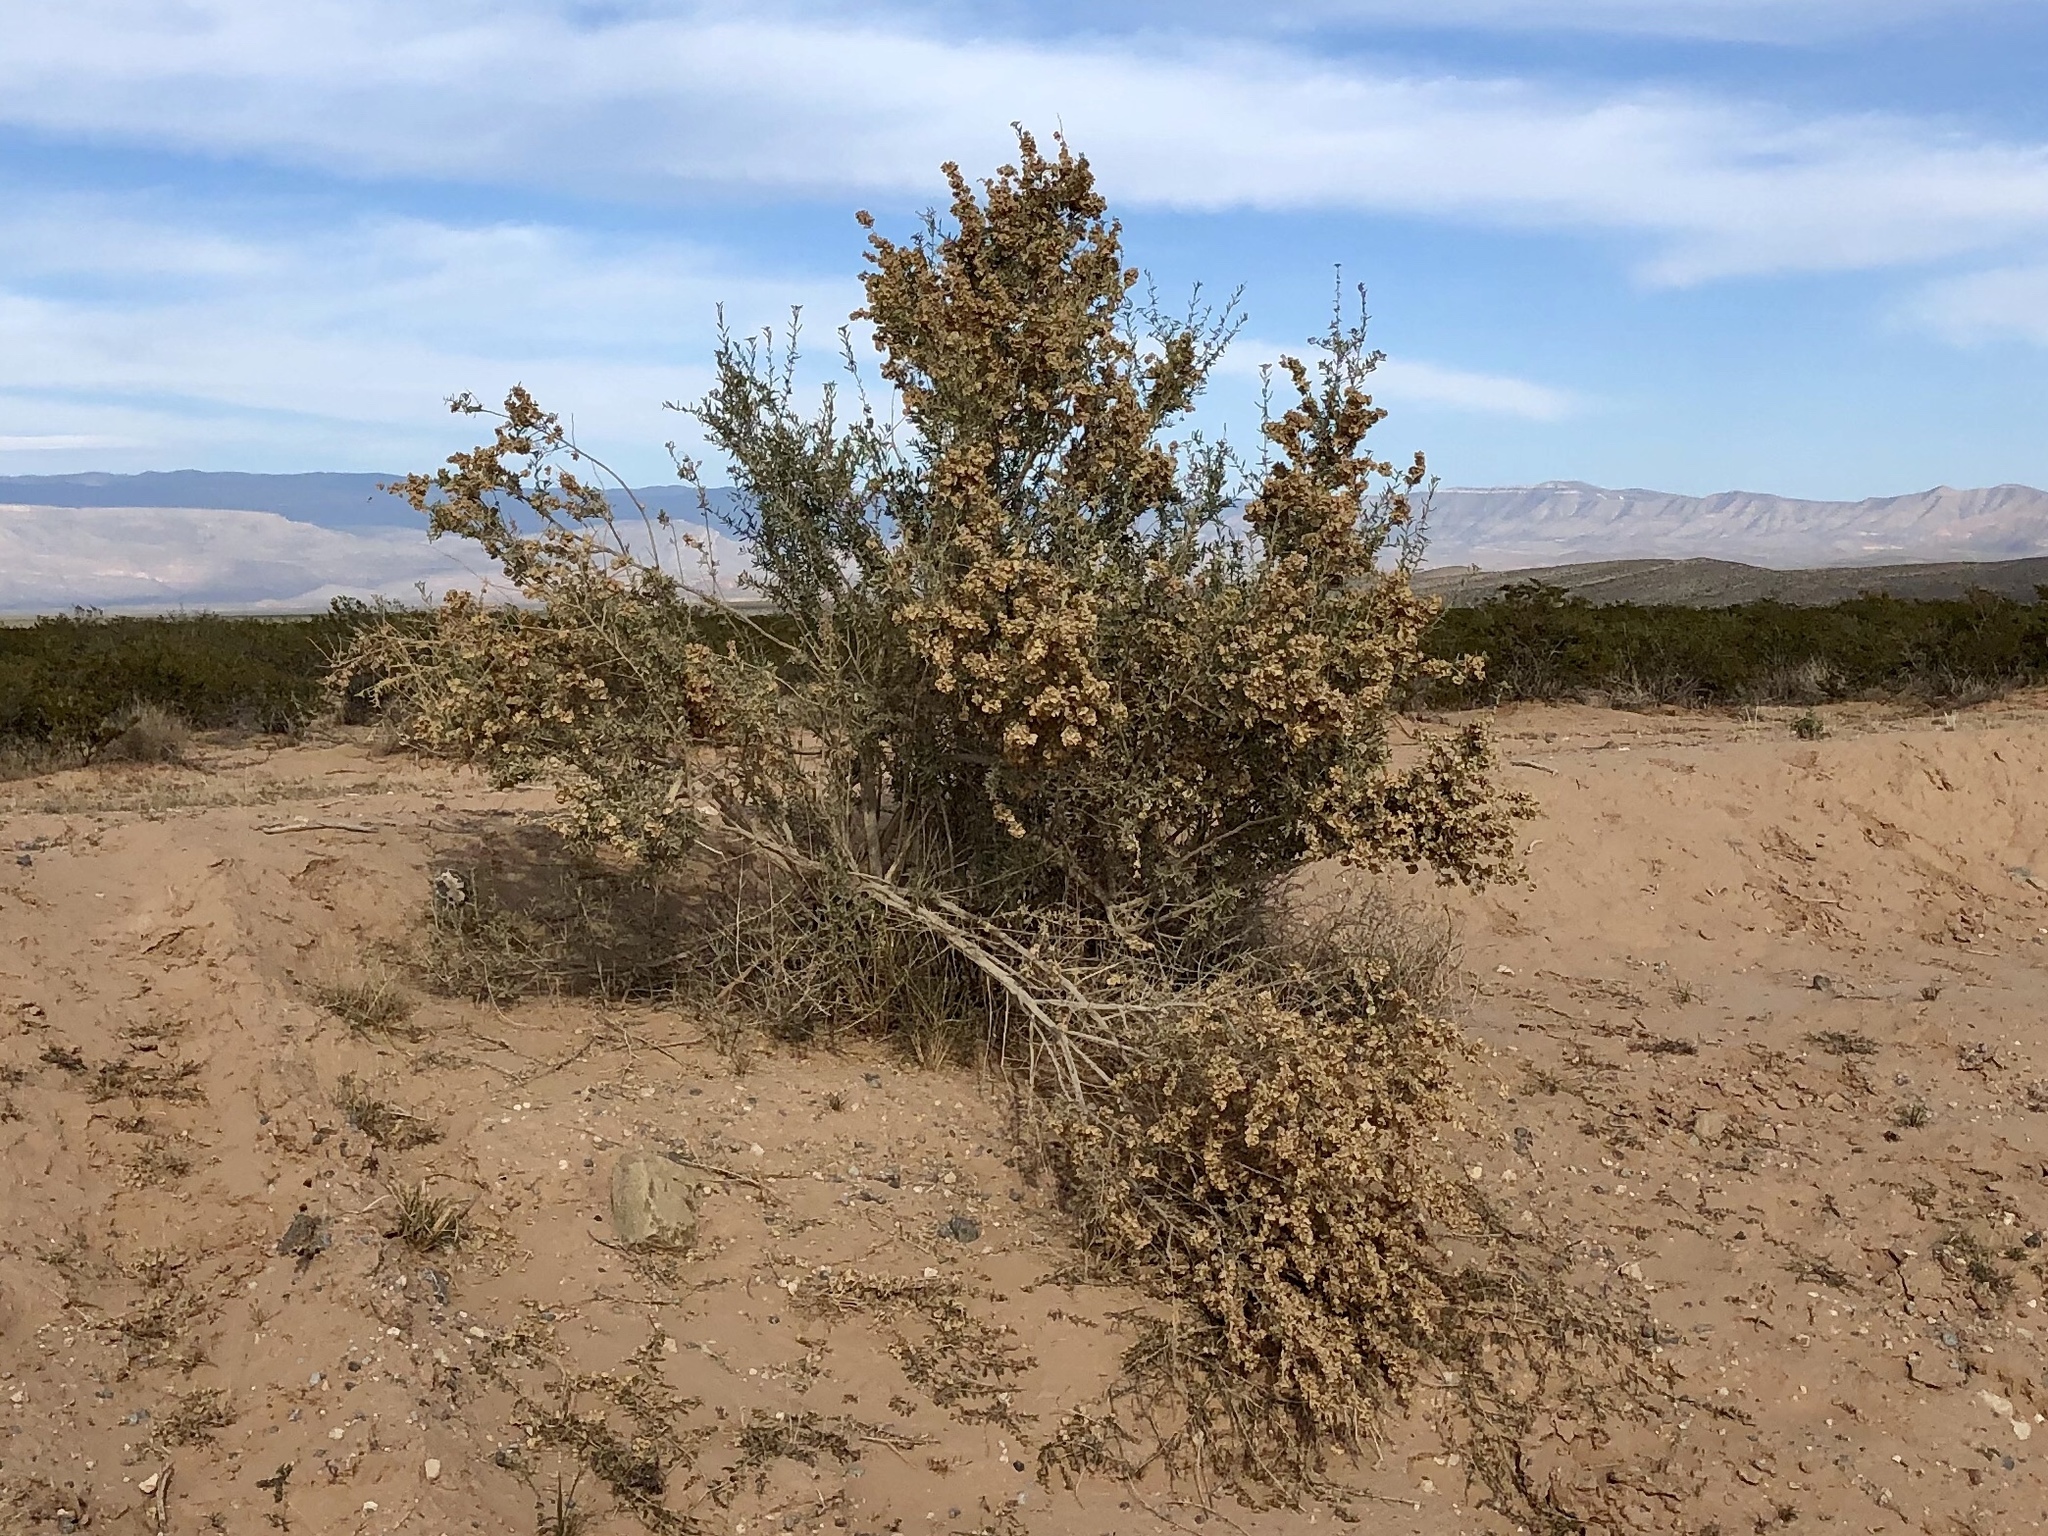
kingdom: Plantae
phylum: Tracheophyta
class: Magnoliopsida
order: Caryophyllales
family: Amaranthaceae
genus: Atriplex
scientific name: Atriplex canescens
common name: Four-wing saltbush
